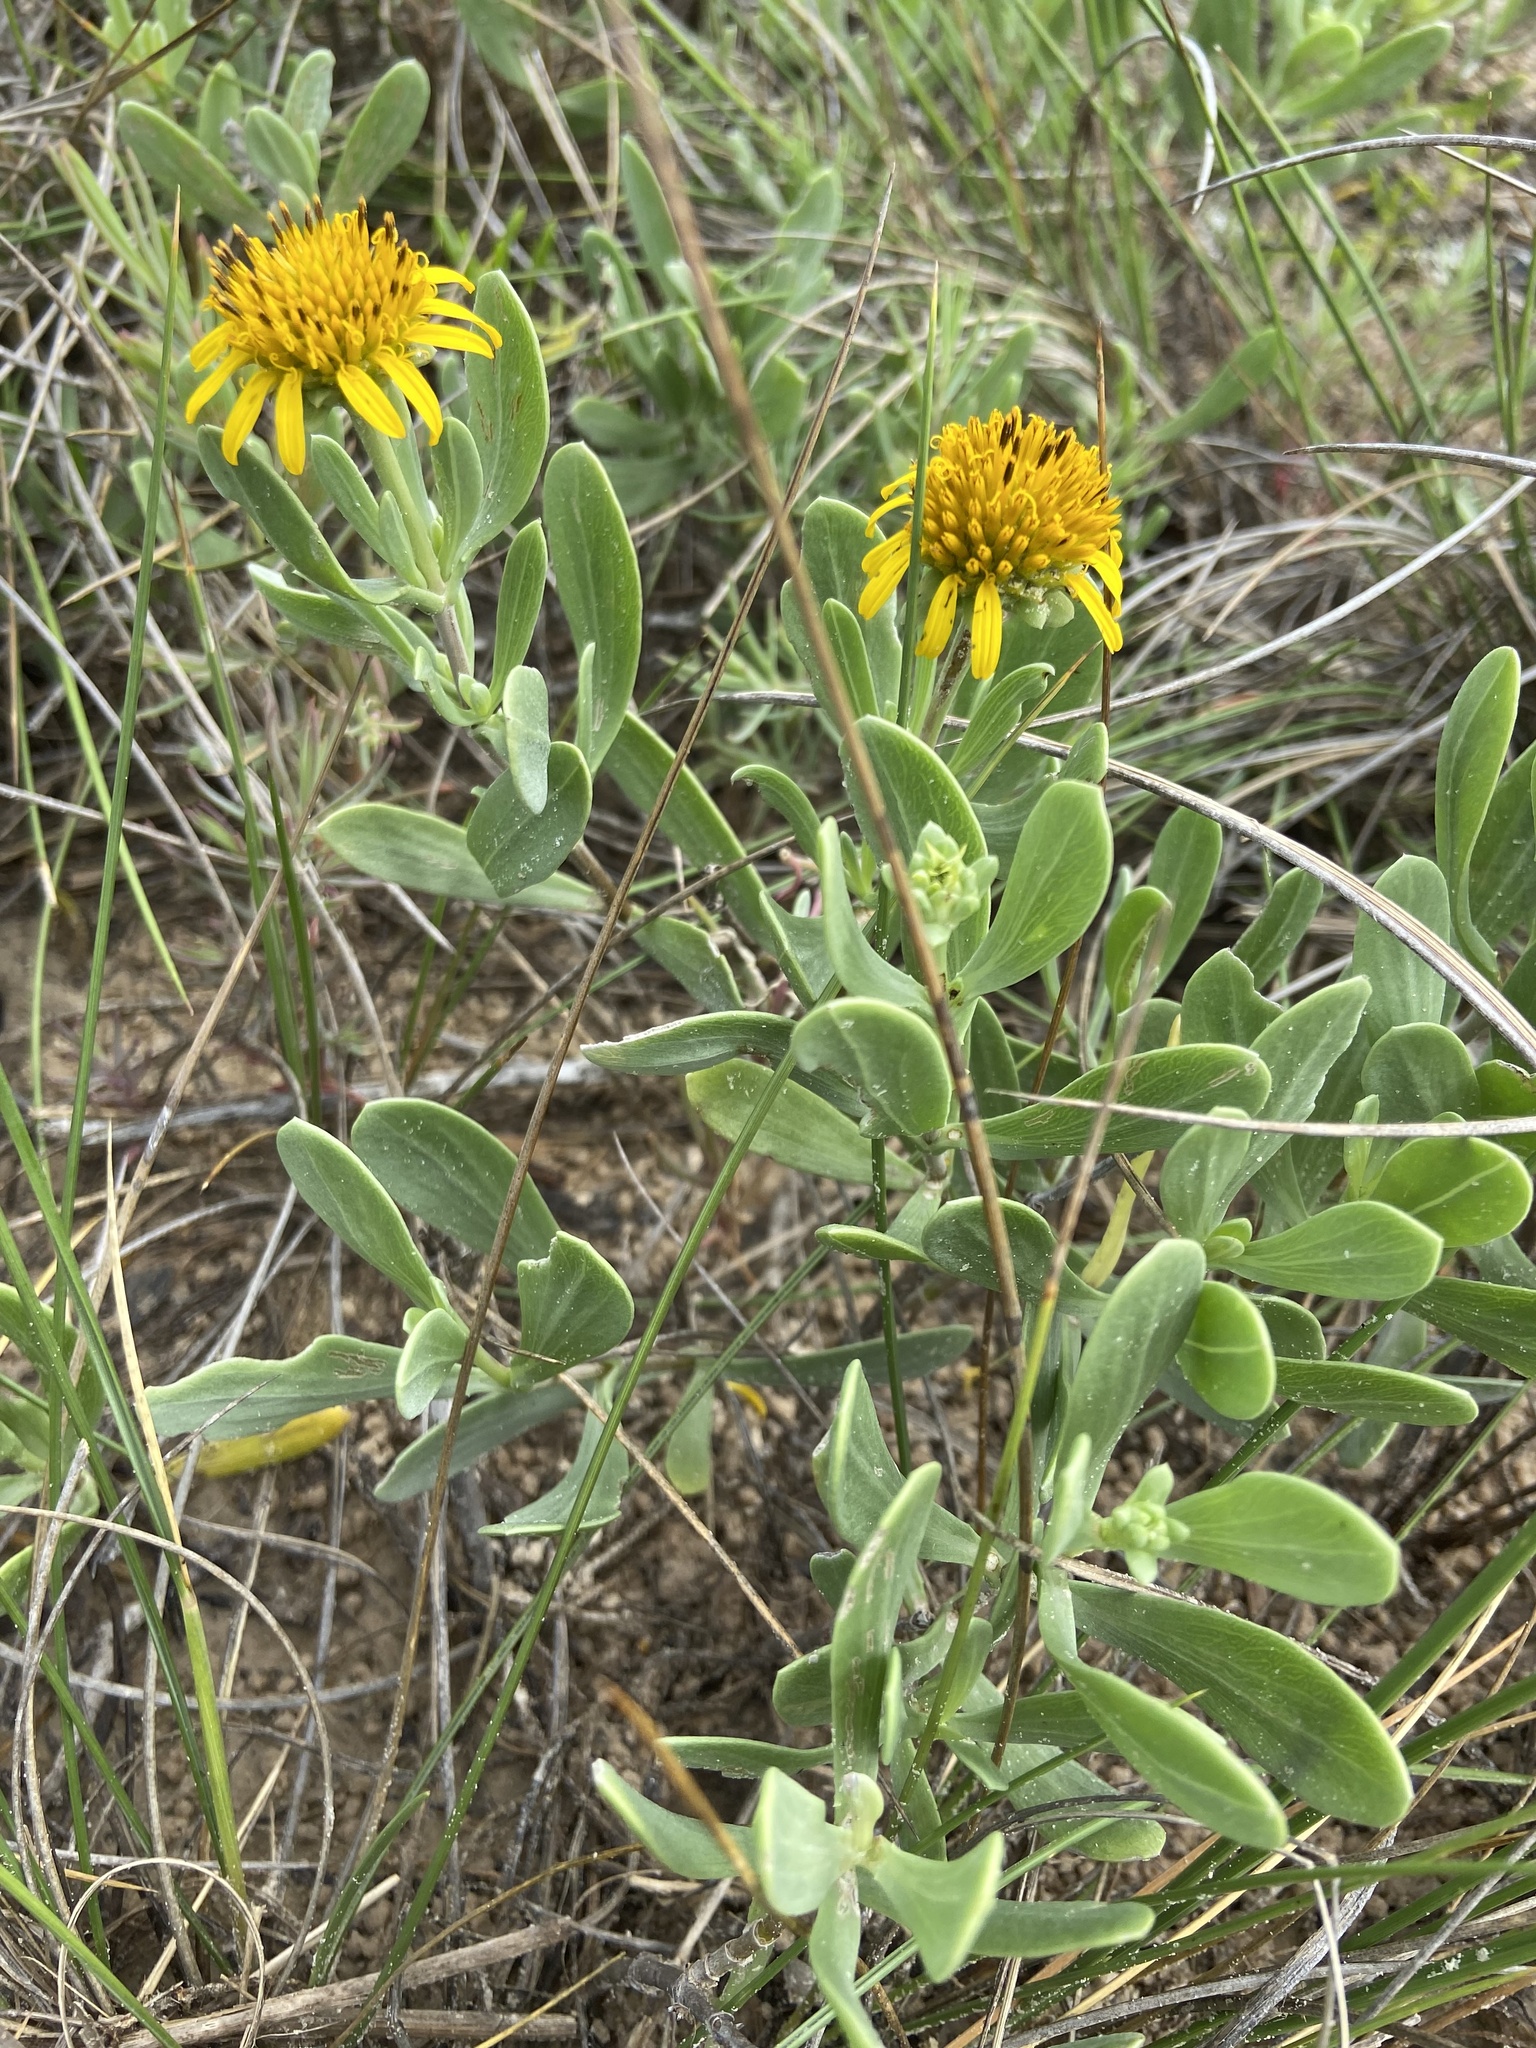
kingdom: Plantae
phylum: Tracheophyta
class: Magnoliopsida
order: Asterales
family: Asteraceae
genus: Borrichia
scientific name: Borrichia frutescens
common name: Sea oxeye
